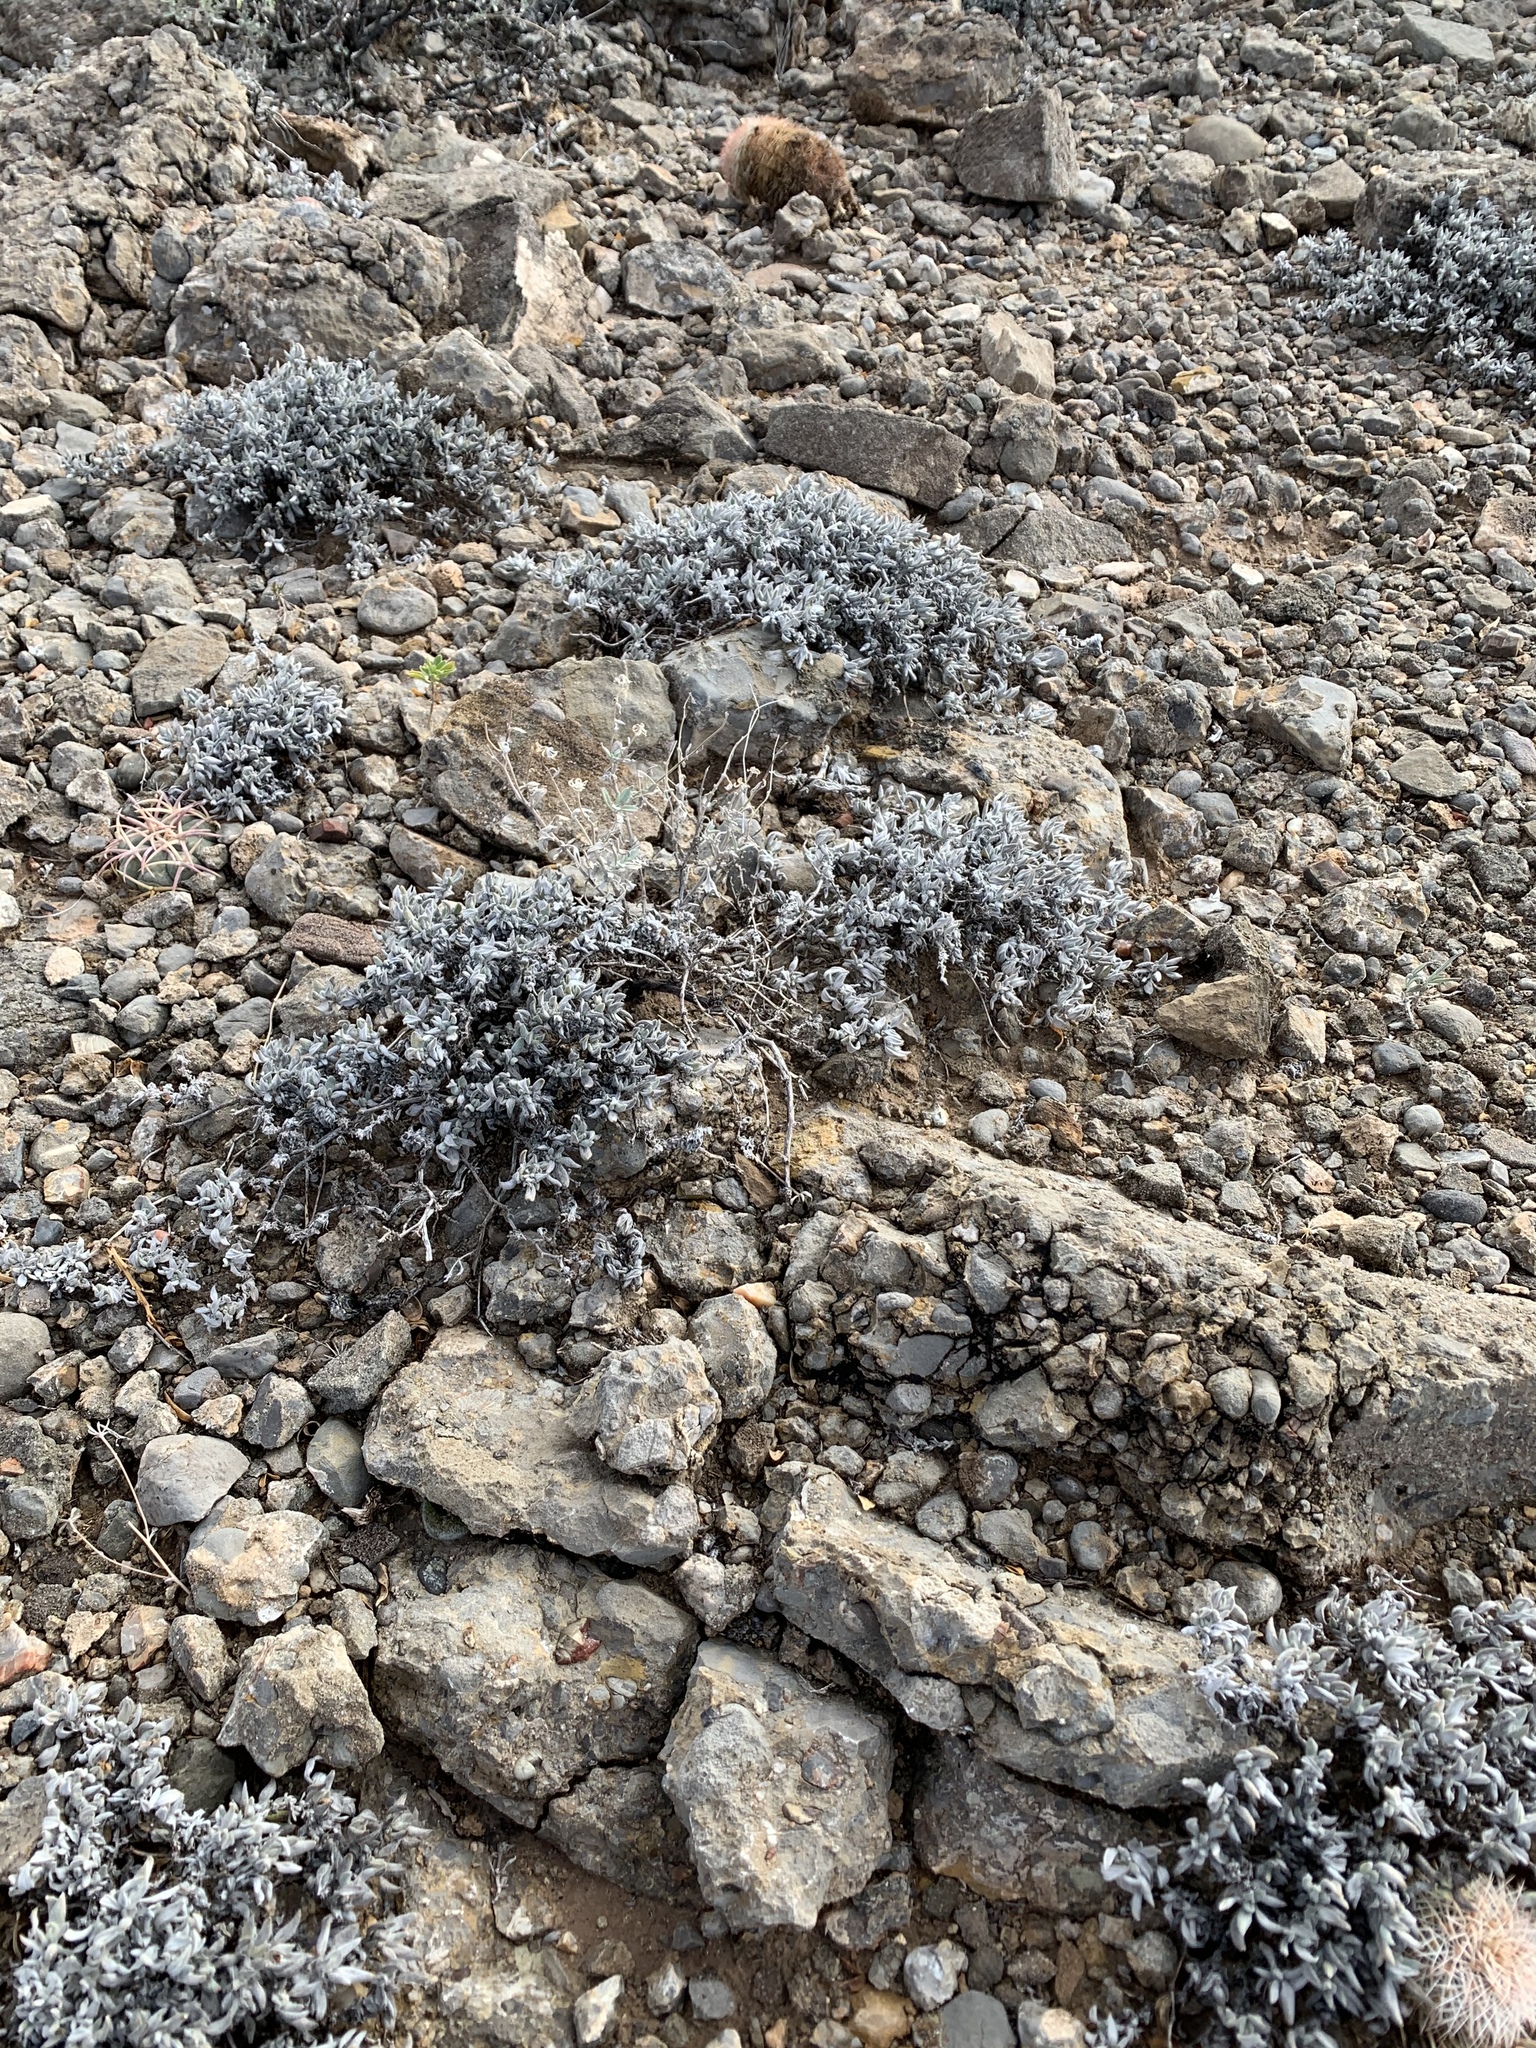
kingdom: Plantae
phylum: Tracheophyta
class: Magnoliopsida
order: Boraginales
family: Ehretiaceae
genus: Tiquilia
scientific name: Tiquilia canescens
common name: Hairy tiquilia
